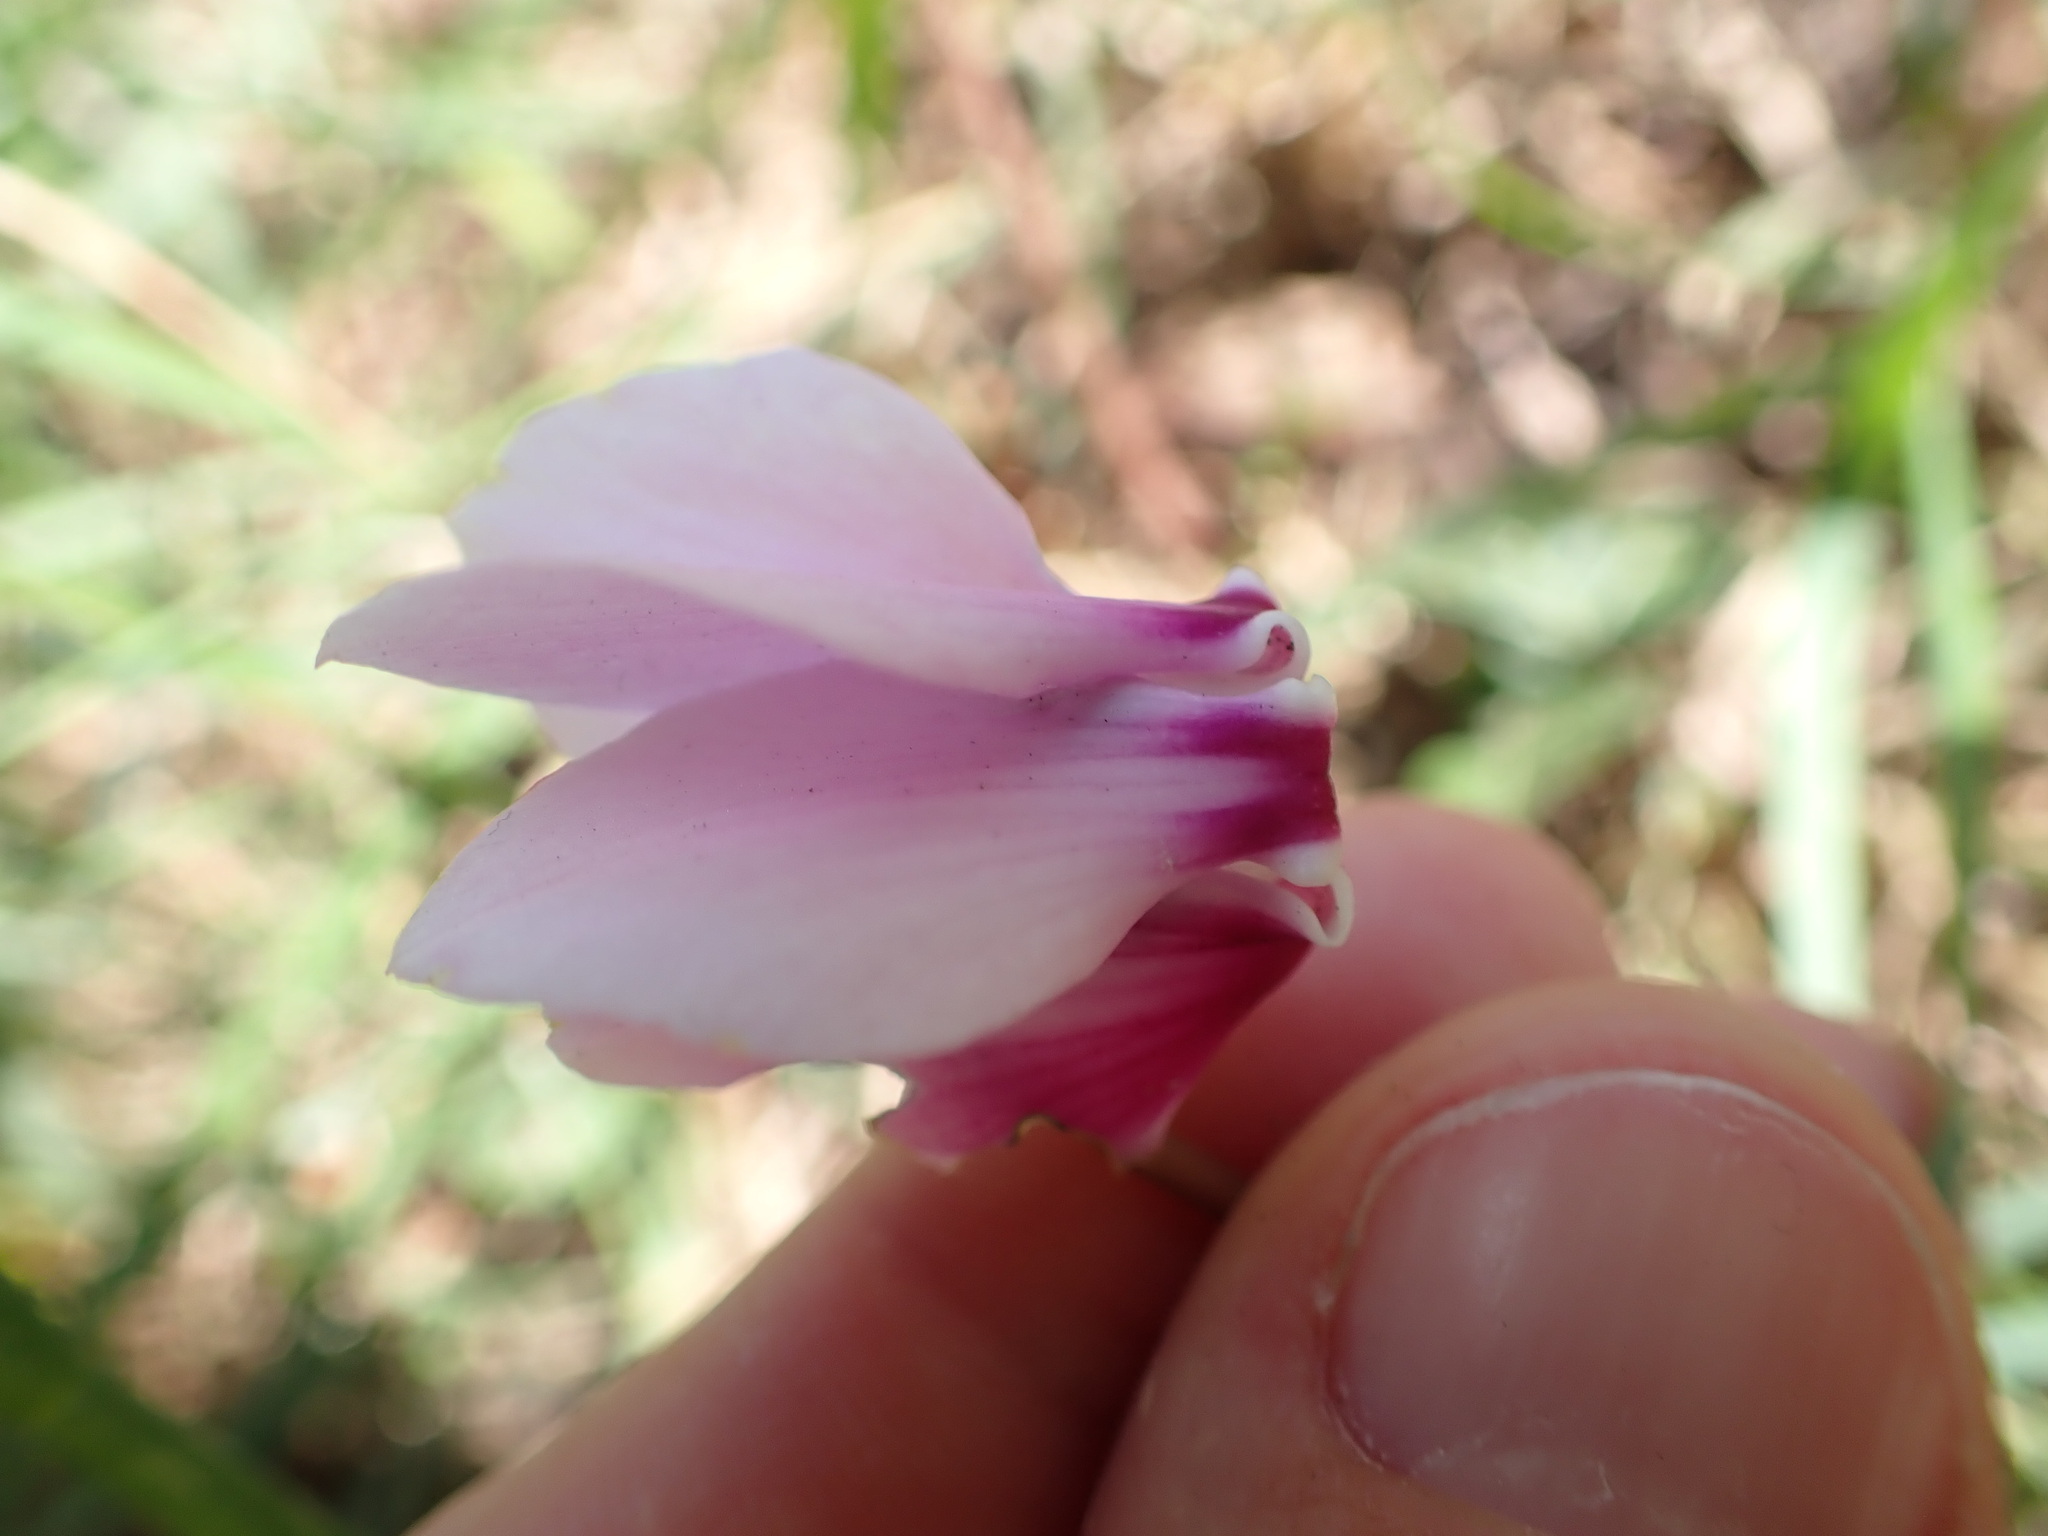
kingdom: Plantae
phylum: Tracheophyta
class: Magnoliopsida
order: Ericales
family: Primulaceae
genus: Cyclamen
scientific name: Cyclamen hederifolium
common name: Sowbread
